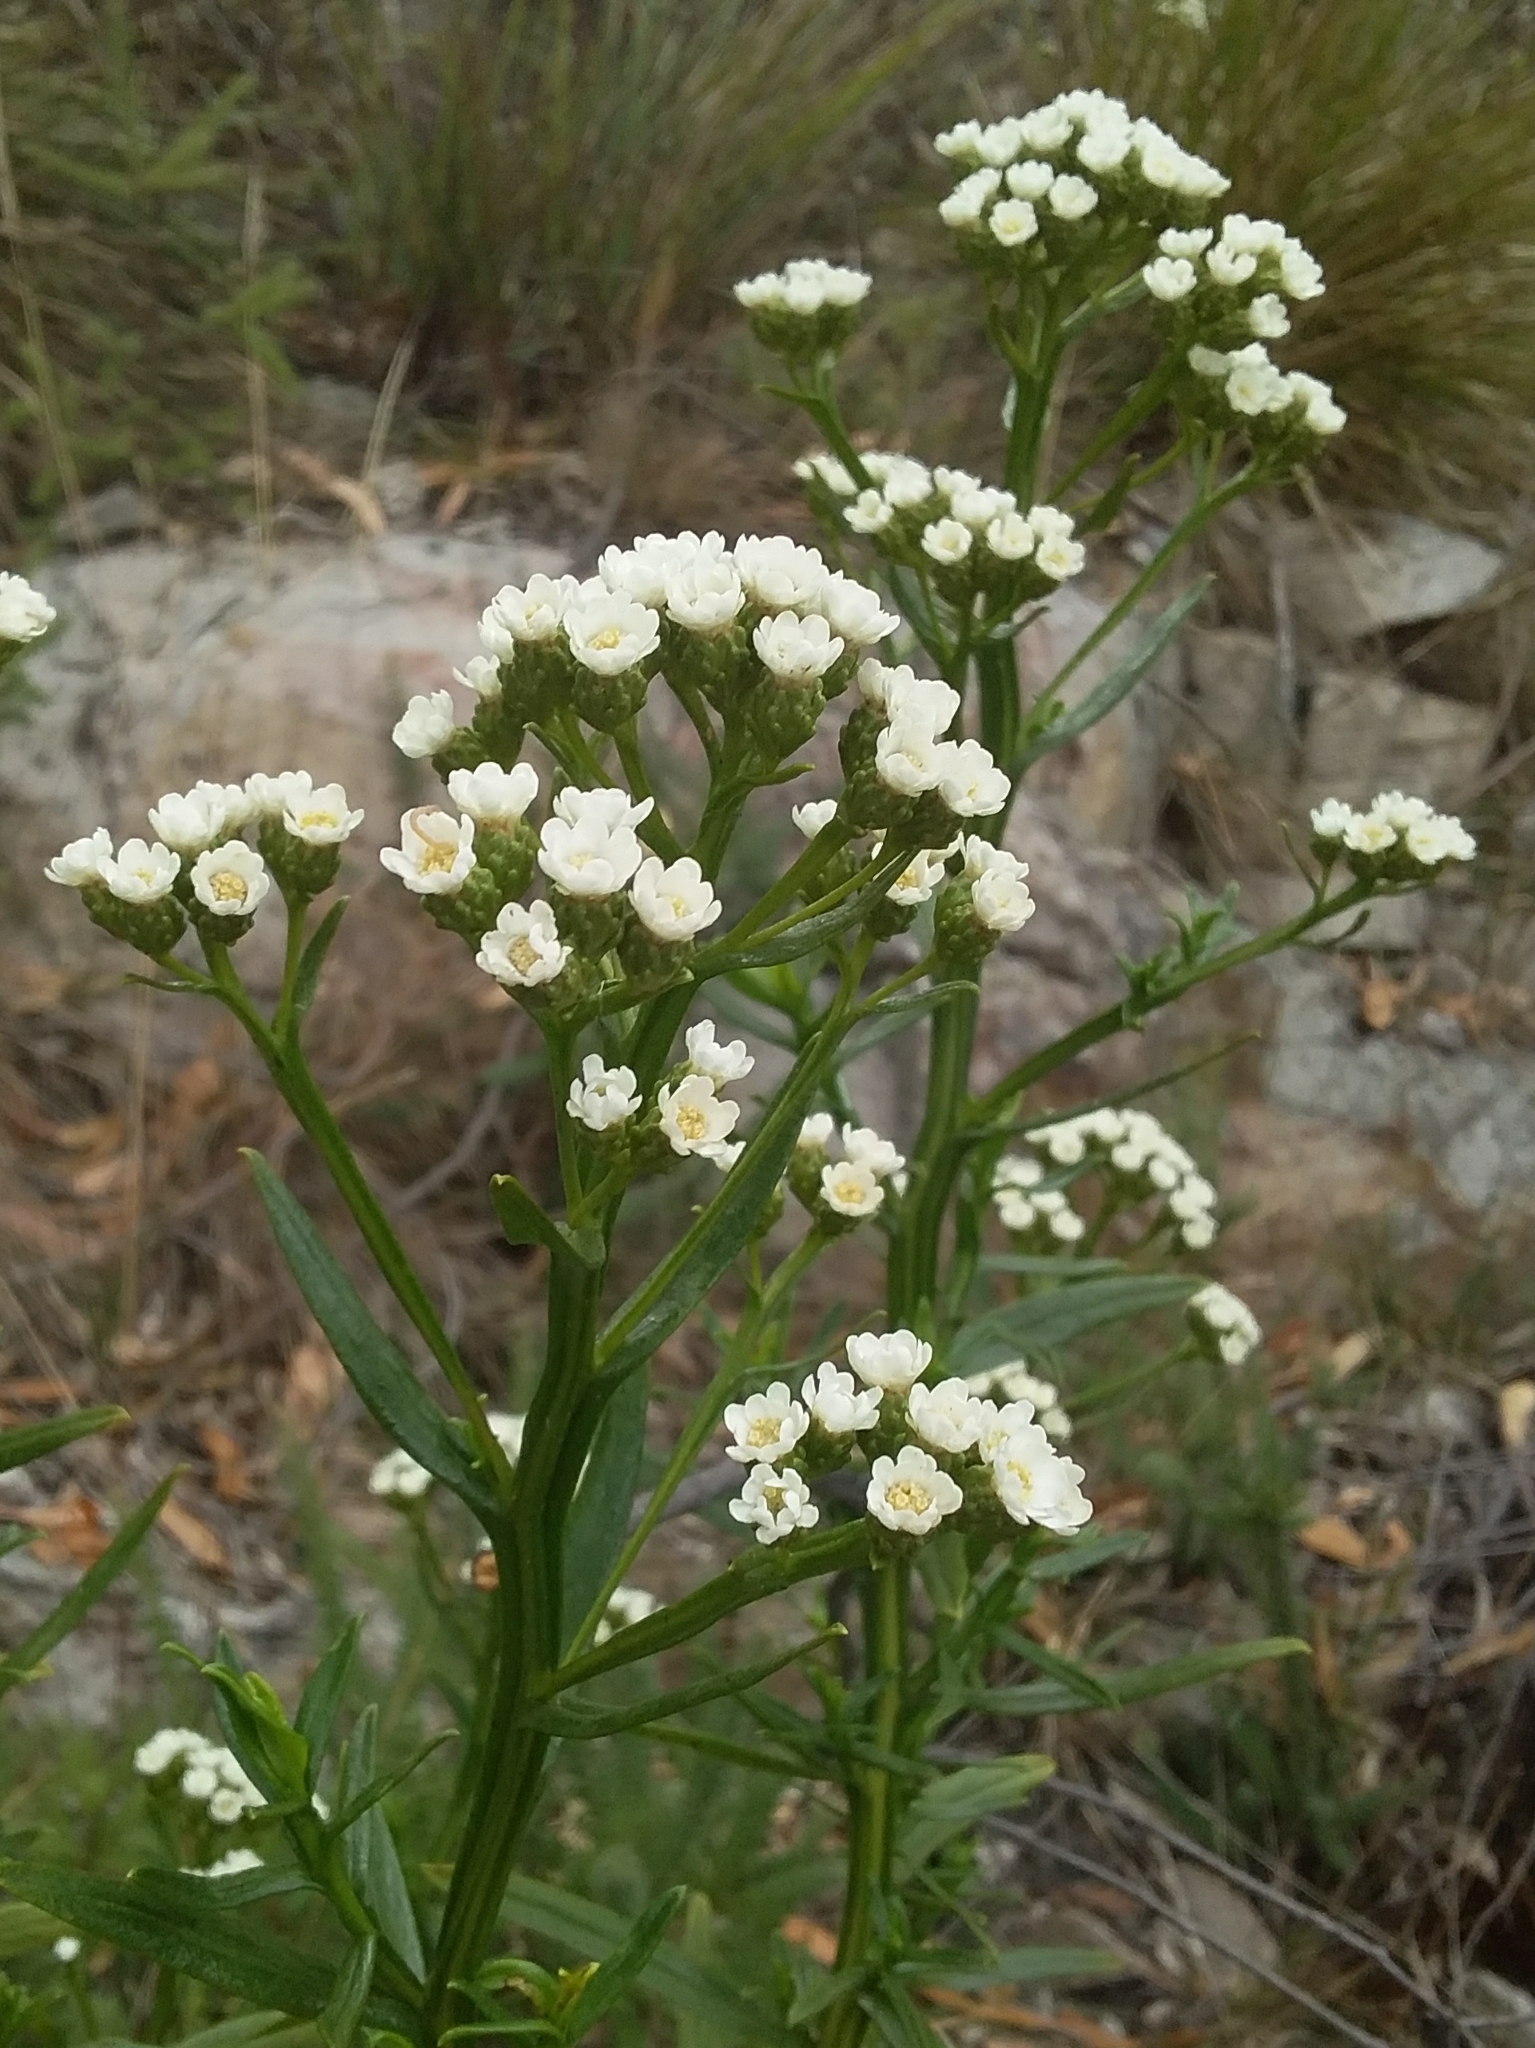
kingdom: Plantae
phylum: Tracheophyta
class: Magnoliopsida
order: Asterales
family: Asteraceae
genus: Ixodia
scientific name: Ixodia achillaeoides
